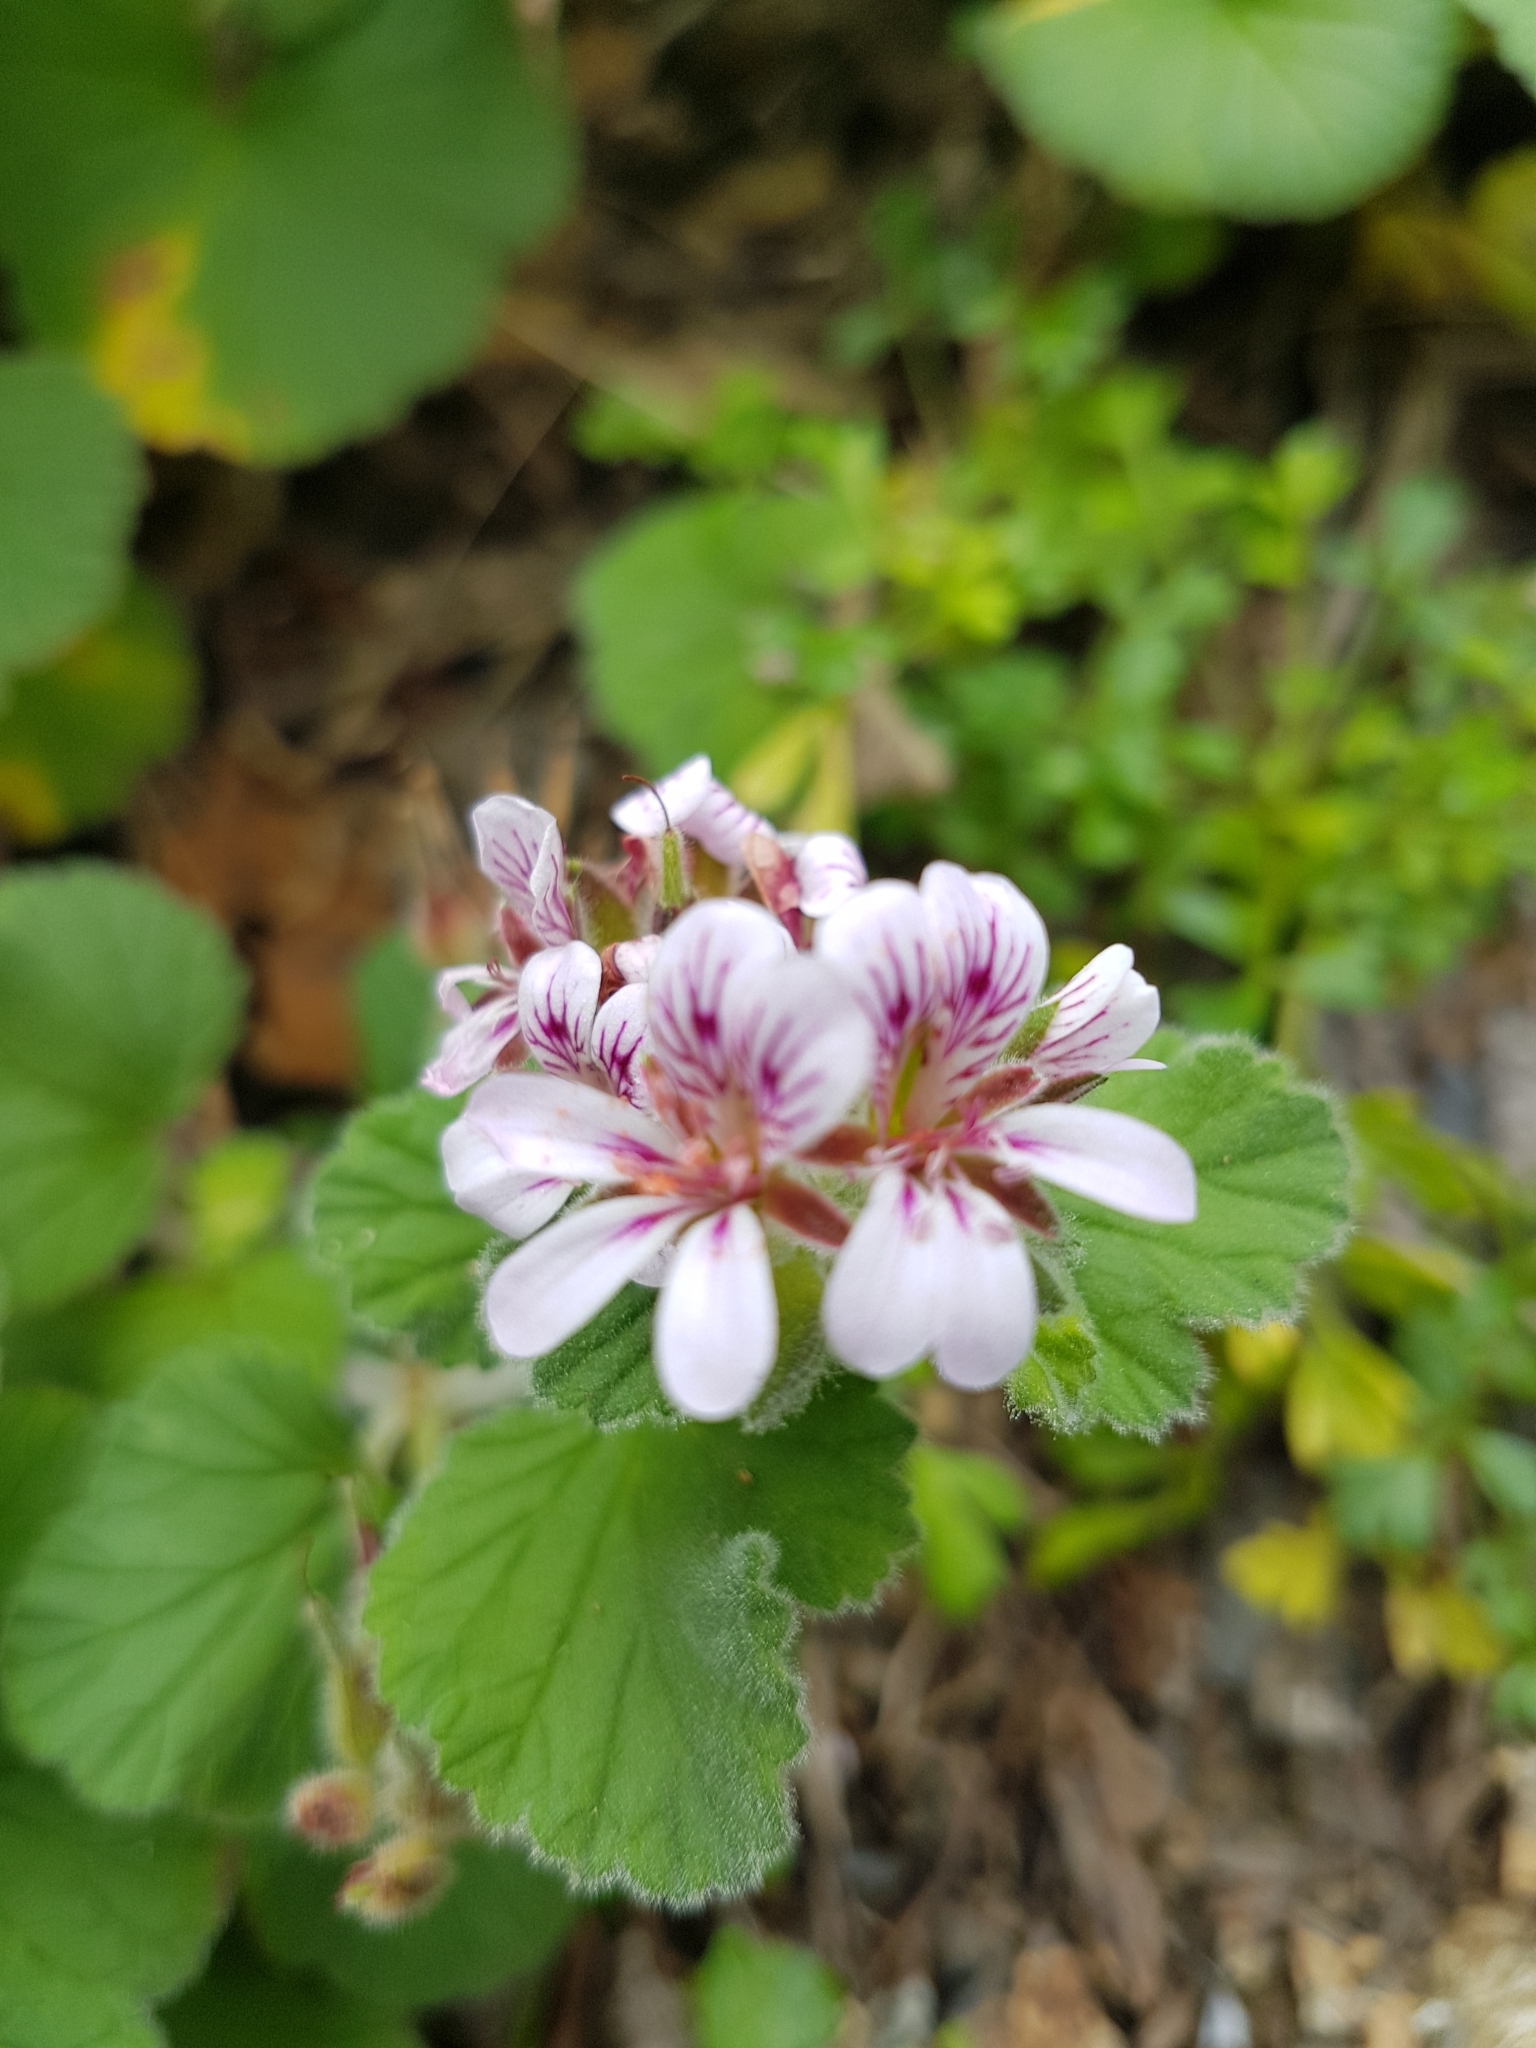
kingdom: Plantae
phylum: Tracheophyta
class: Magnoliopsida
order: Geraniales
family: Geraniaceae
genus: Pelargonium
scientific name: Pelargonium australe
